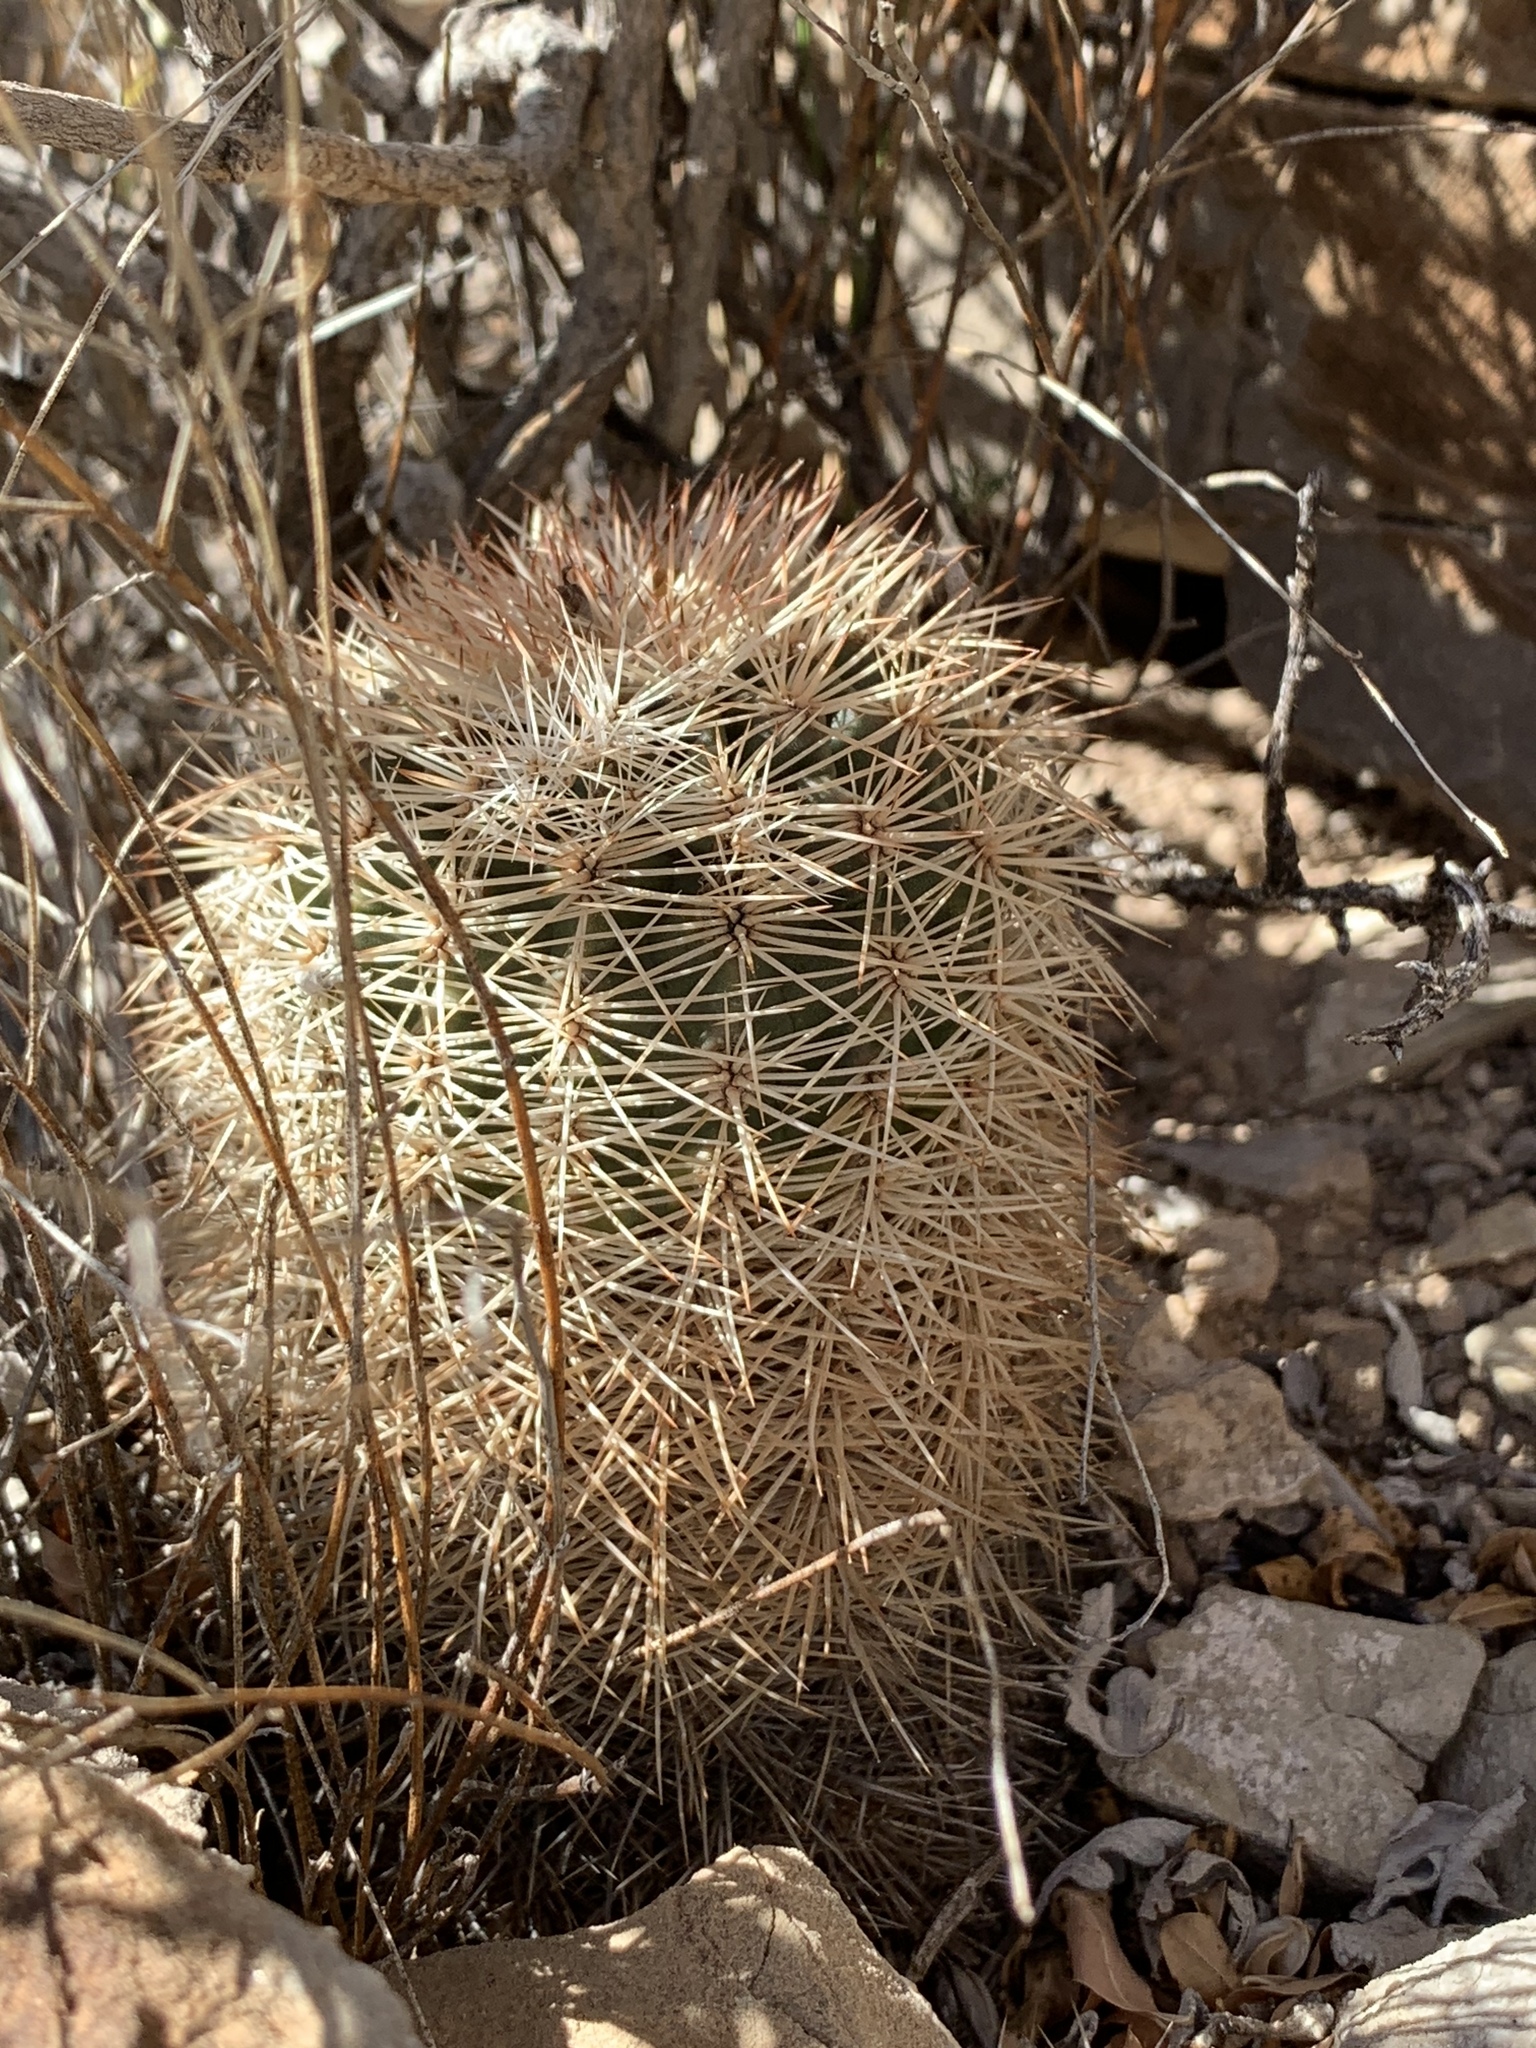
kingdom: Plantae
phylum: Tracheophyta
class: Magnoliopsida
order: Caryophyllales
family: Cactaceae
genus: Echinocereus
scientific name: Echinocereus dasyacanthus
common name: Spiny hedgehog cactus
